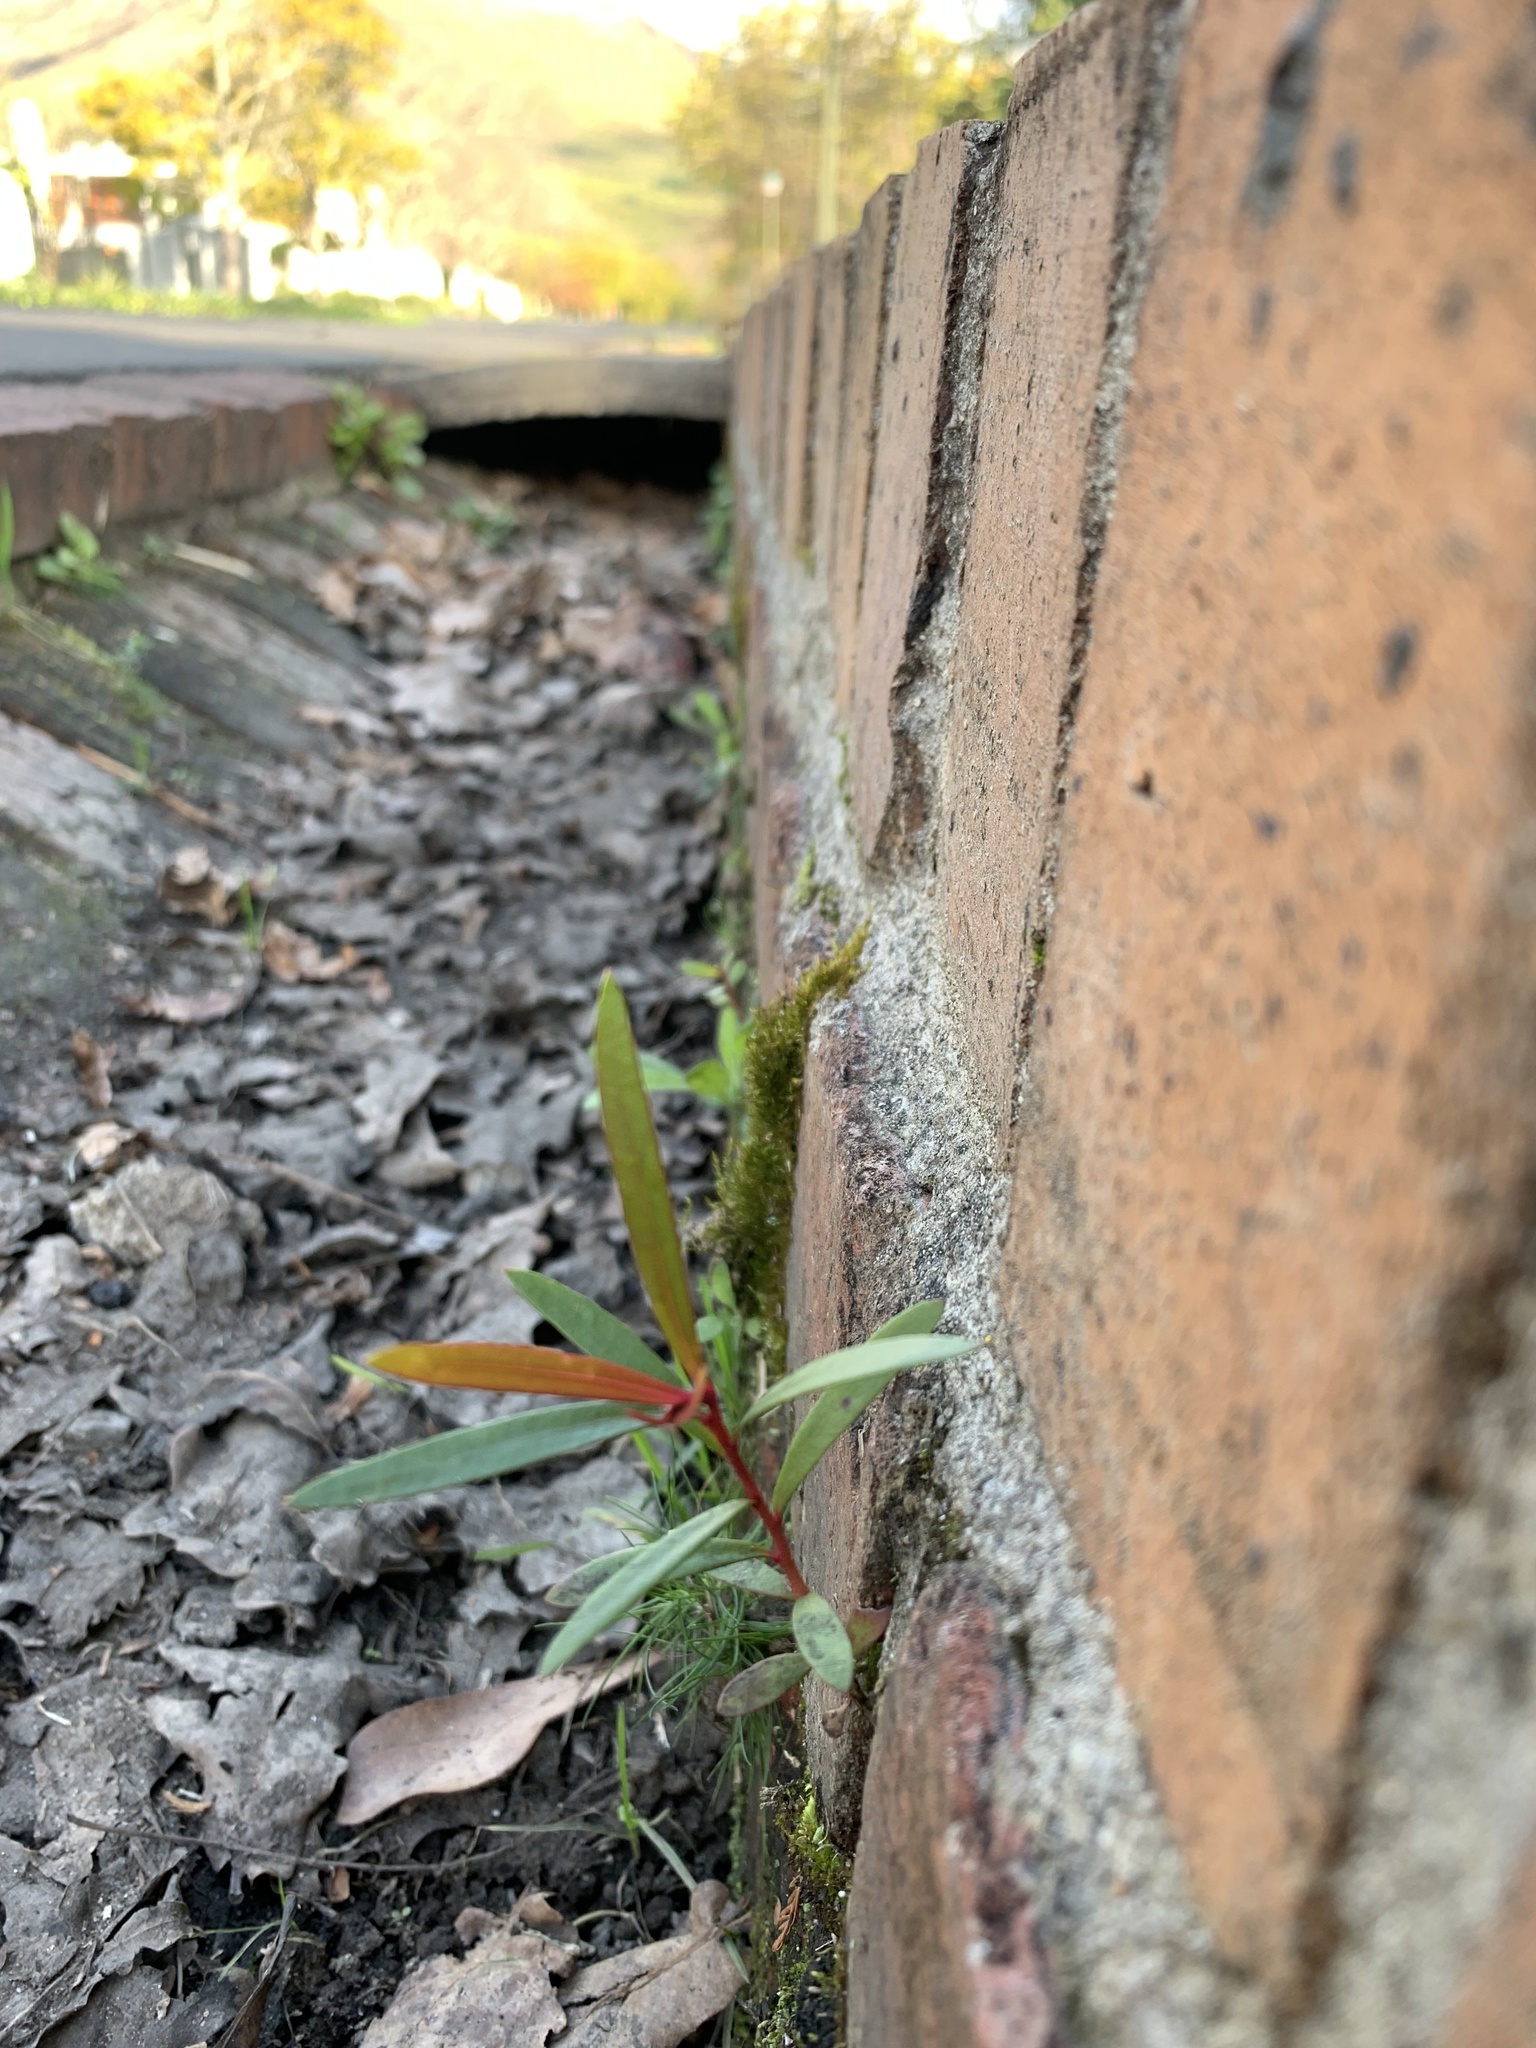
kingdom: Plantae
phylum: Tracheophyta
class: Magnoliopsida
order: Myrtales
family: Myrtaceae
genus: Callistemon
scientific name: Callistemon viminalis
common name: Drooping bottlebrush
